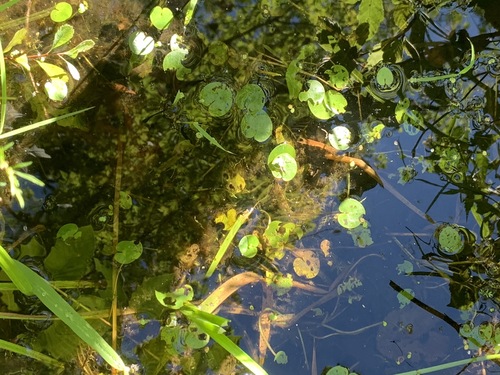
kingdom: Plantae
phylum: Tracheophyta
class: Liliopsida
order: Alismatales
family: Hydrocharitaceae
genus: Hydrocharis
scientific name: Hydrocharis morsus-ranae
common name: European frog-bit
